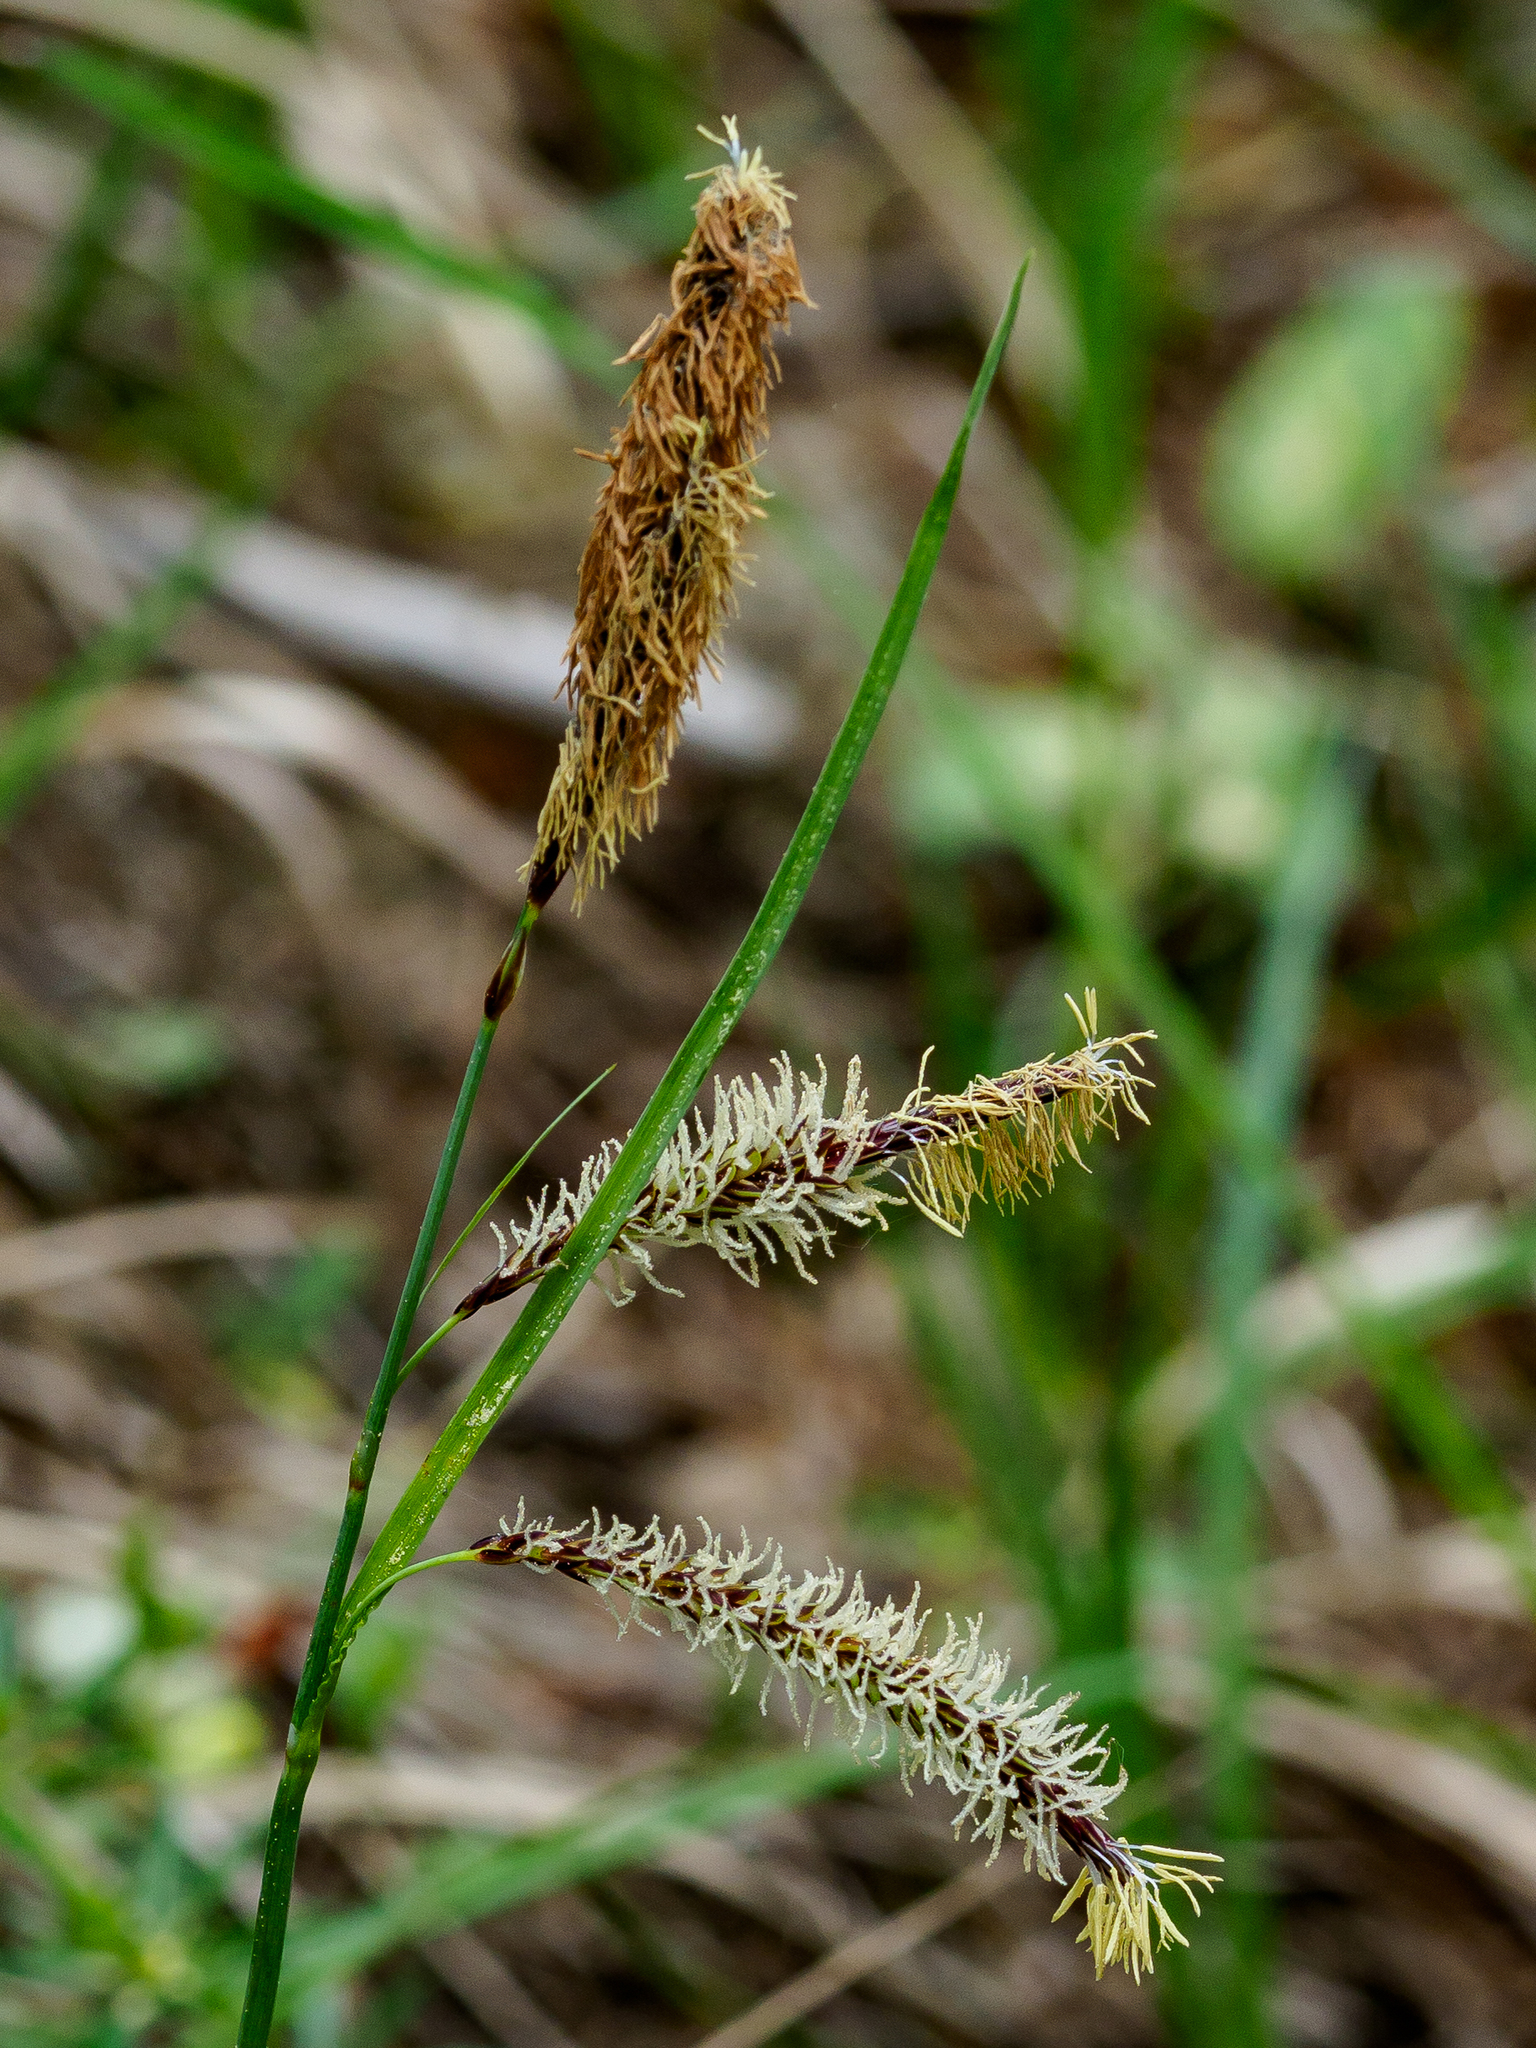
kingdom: Plantae
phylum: Tracheophyta
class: Liliopsida
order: Poales
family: Cyperaceae
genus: Carex
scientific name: Carex flacca
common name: Glaucous sedge
